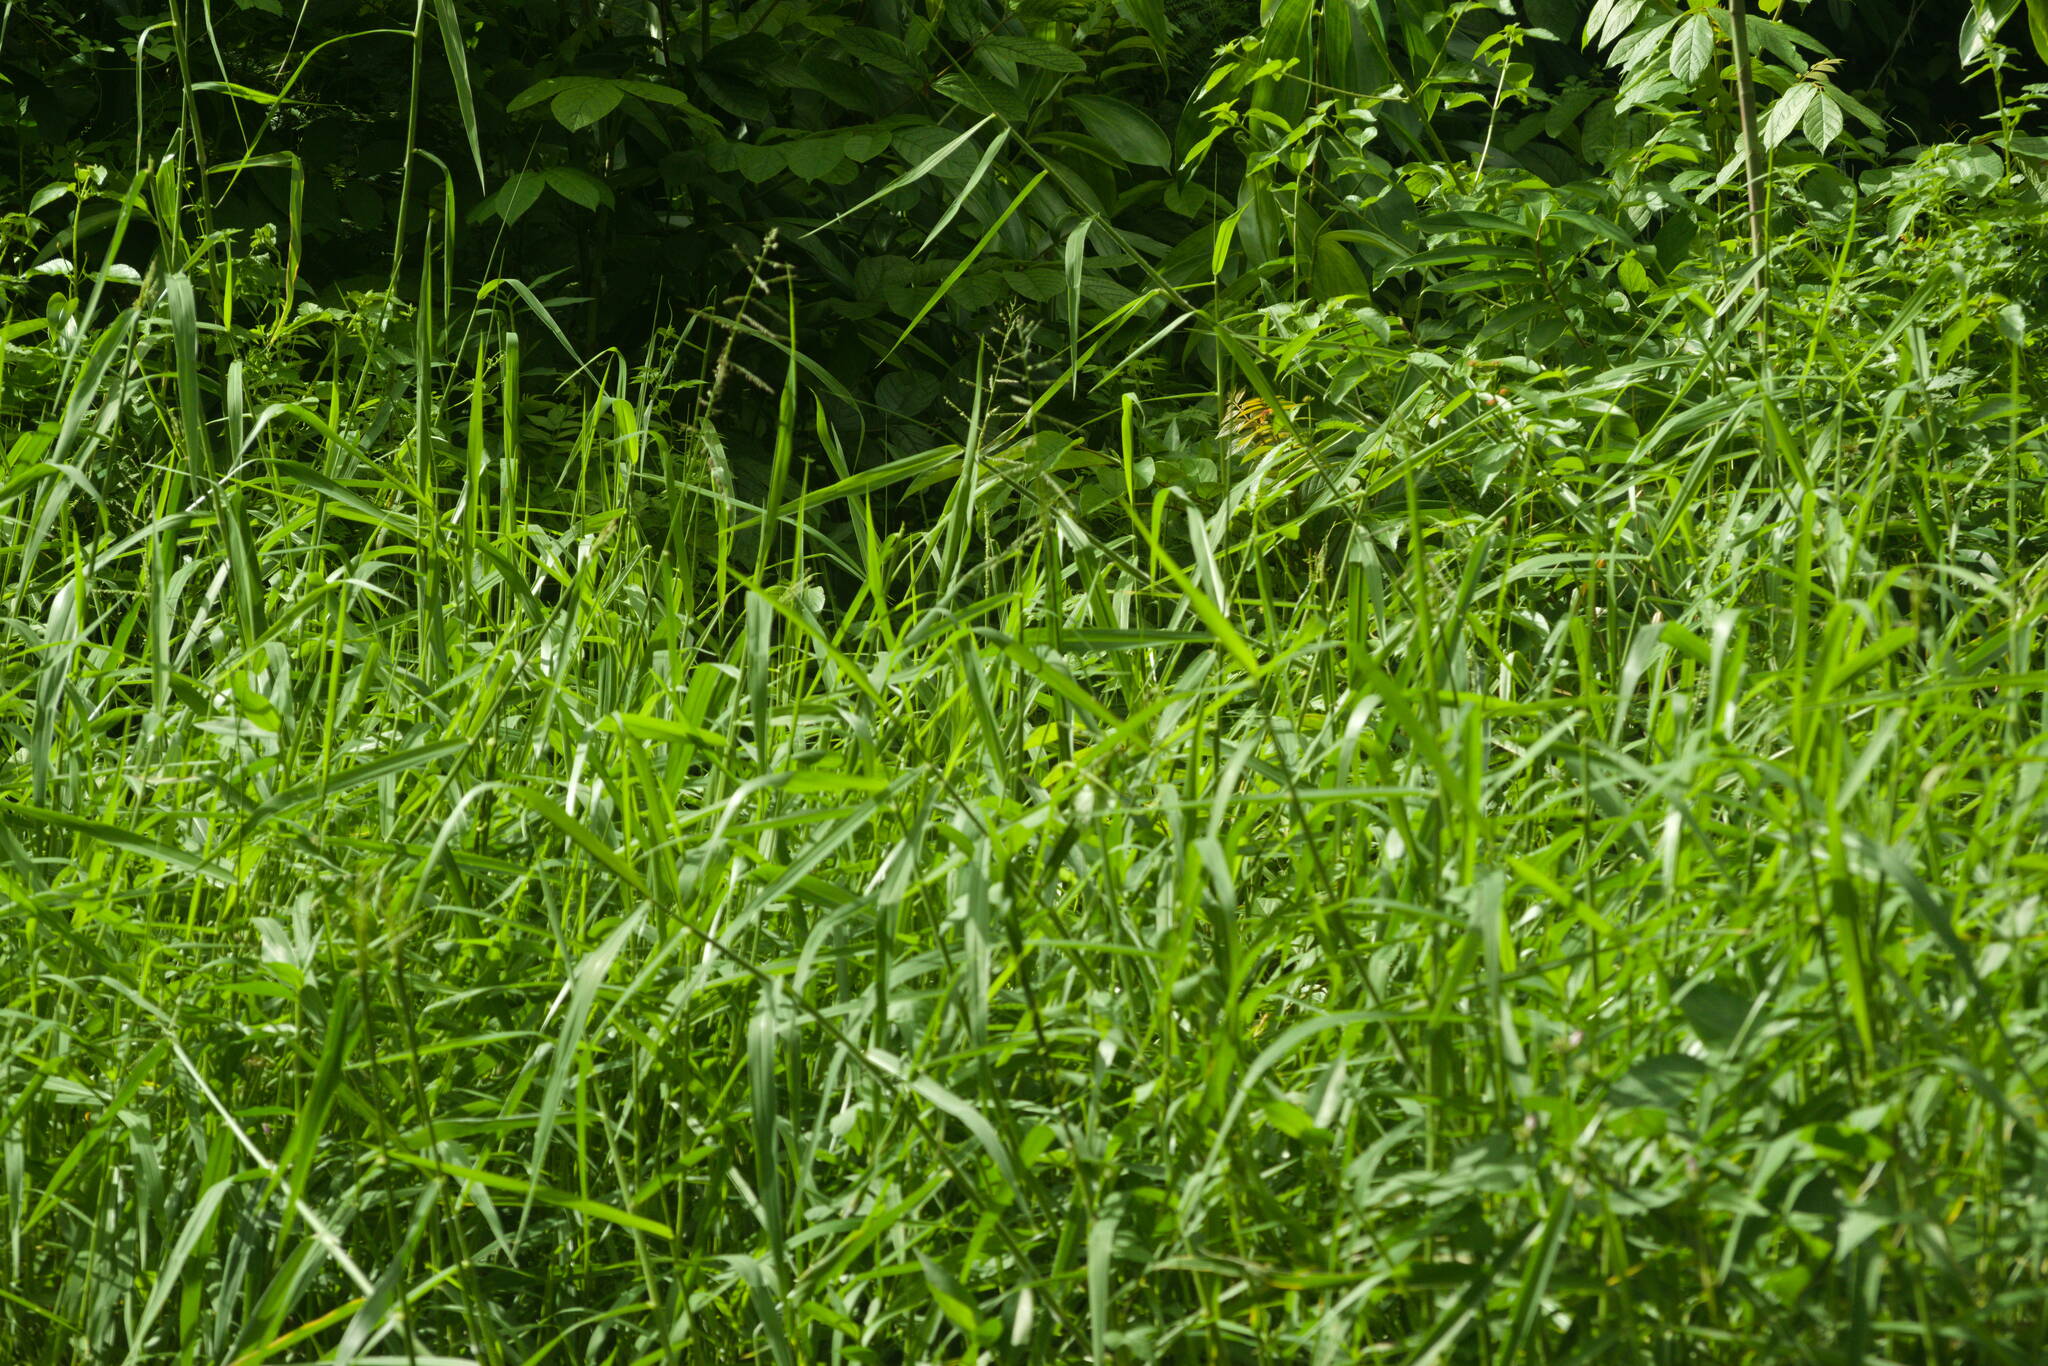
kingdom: Plantae
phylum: Tracheophyta
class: Liliopsida
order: Poales
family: Poaceae
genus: Urochloa
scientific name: Urochloa mutica
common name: Para grass
